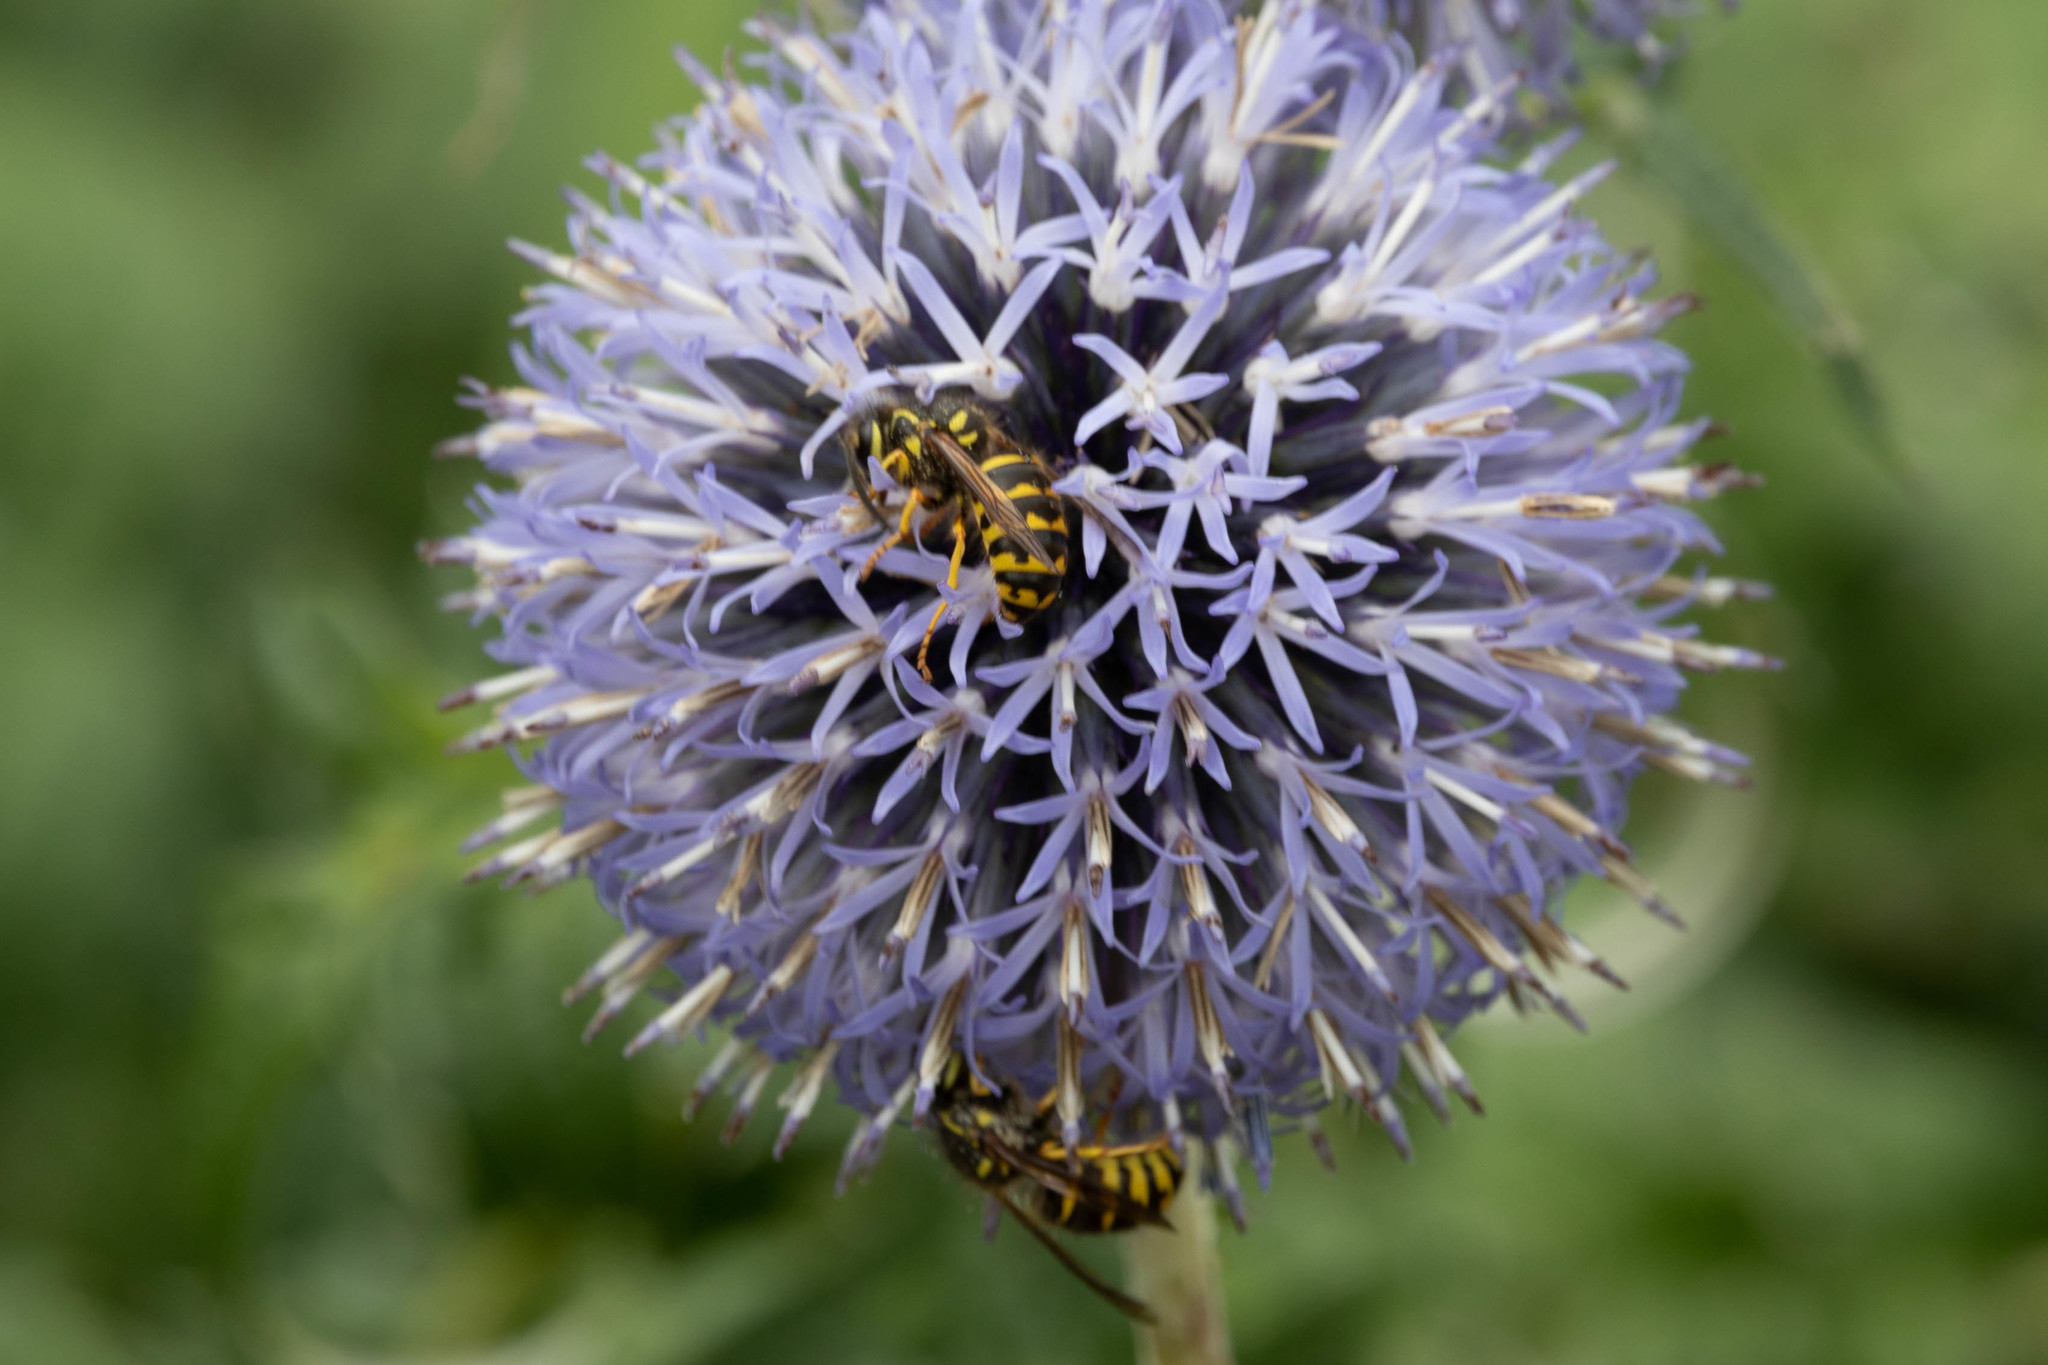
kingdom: Animalia
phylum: Arthropoda
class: Insecta
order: Hymenoptera
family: Vespidae
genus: Dolichovespula
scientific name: Dolichovespula arenaria
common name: Aerial yellowjacket
